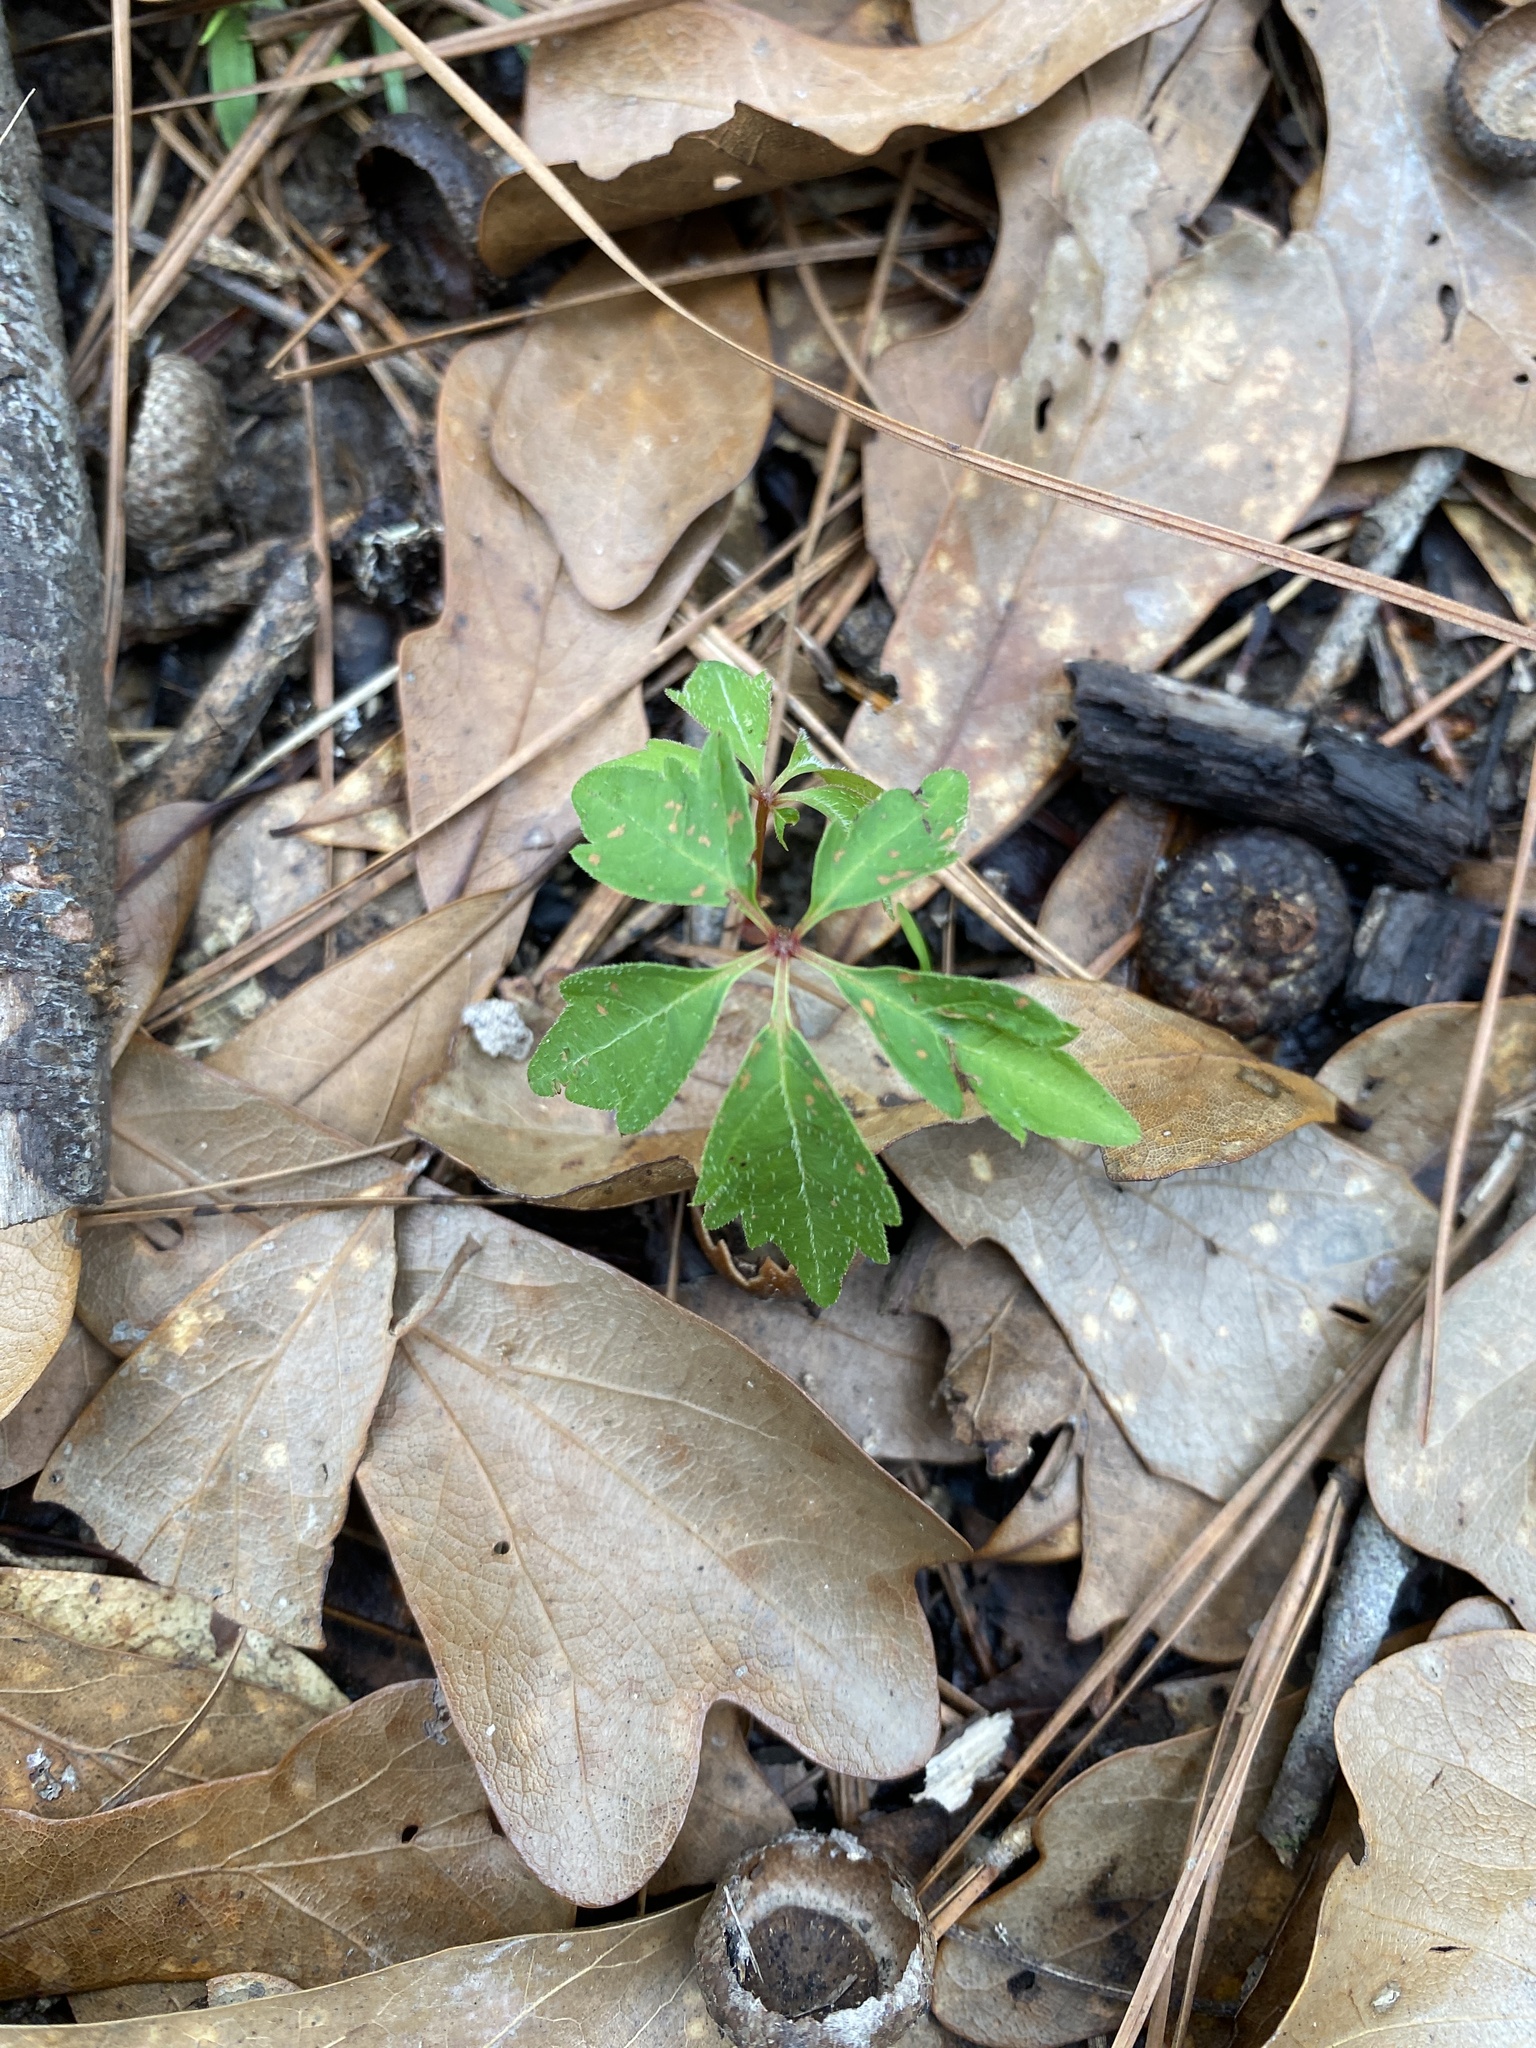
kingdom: Plantae
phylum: Tracheophyta
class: Magnoliopsida
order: Vitales
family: Vitaceae
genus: Parthenocissus
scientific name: Parthenocissus quinquefolia
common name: Virginia-creeper
